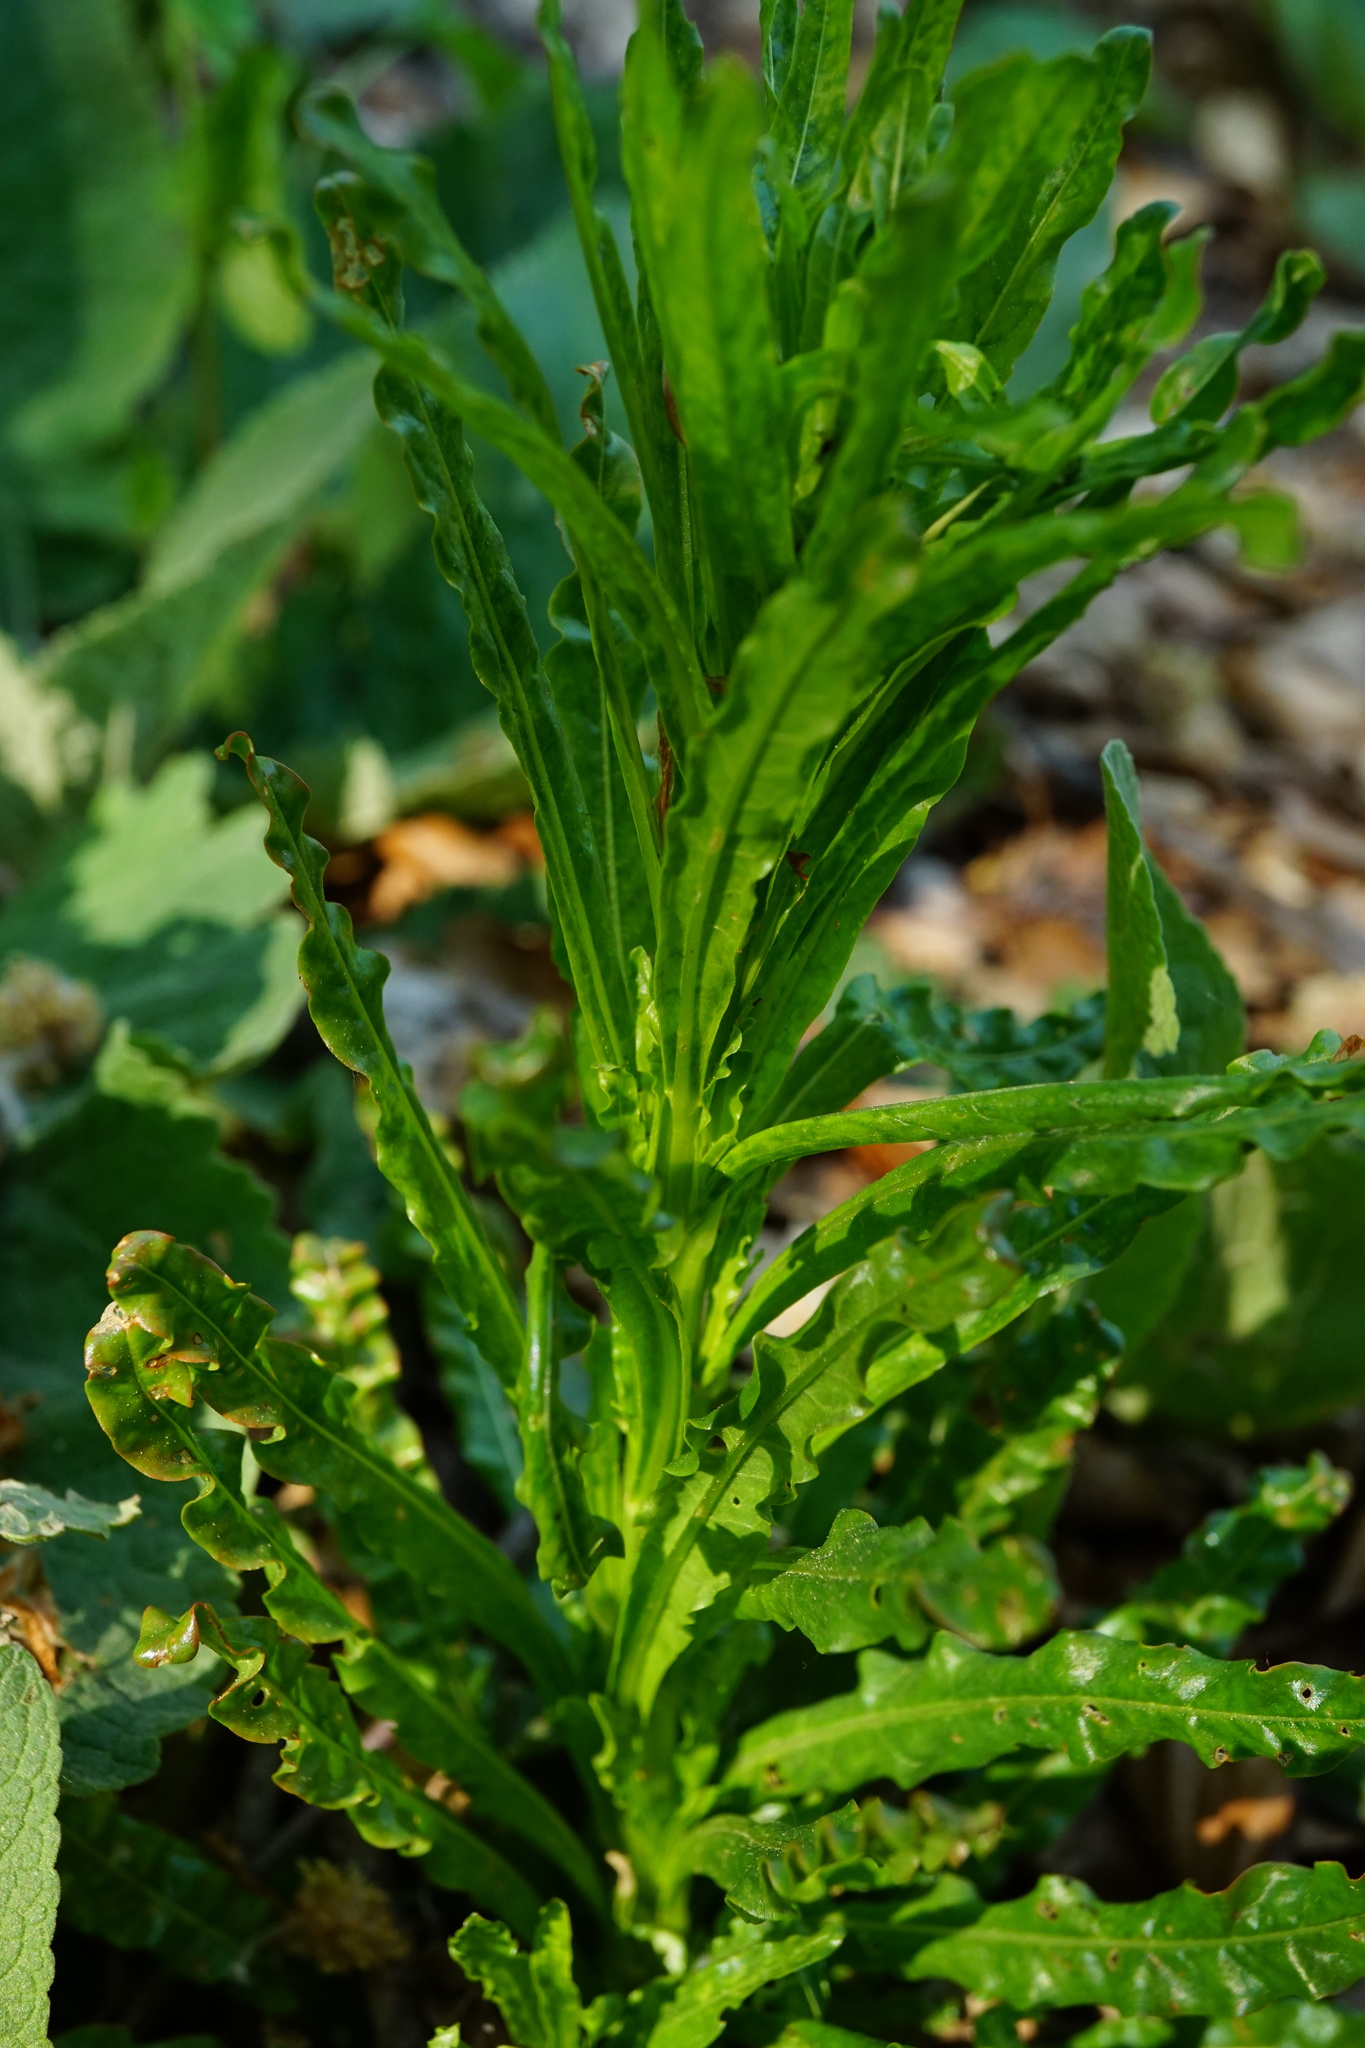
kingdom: Plantae
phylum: Tracheophyta
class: Magnoliopsida
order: Brassicales
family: Resedaceae
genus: Reseda
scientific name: Reseda luteola
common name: Weld
